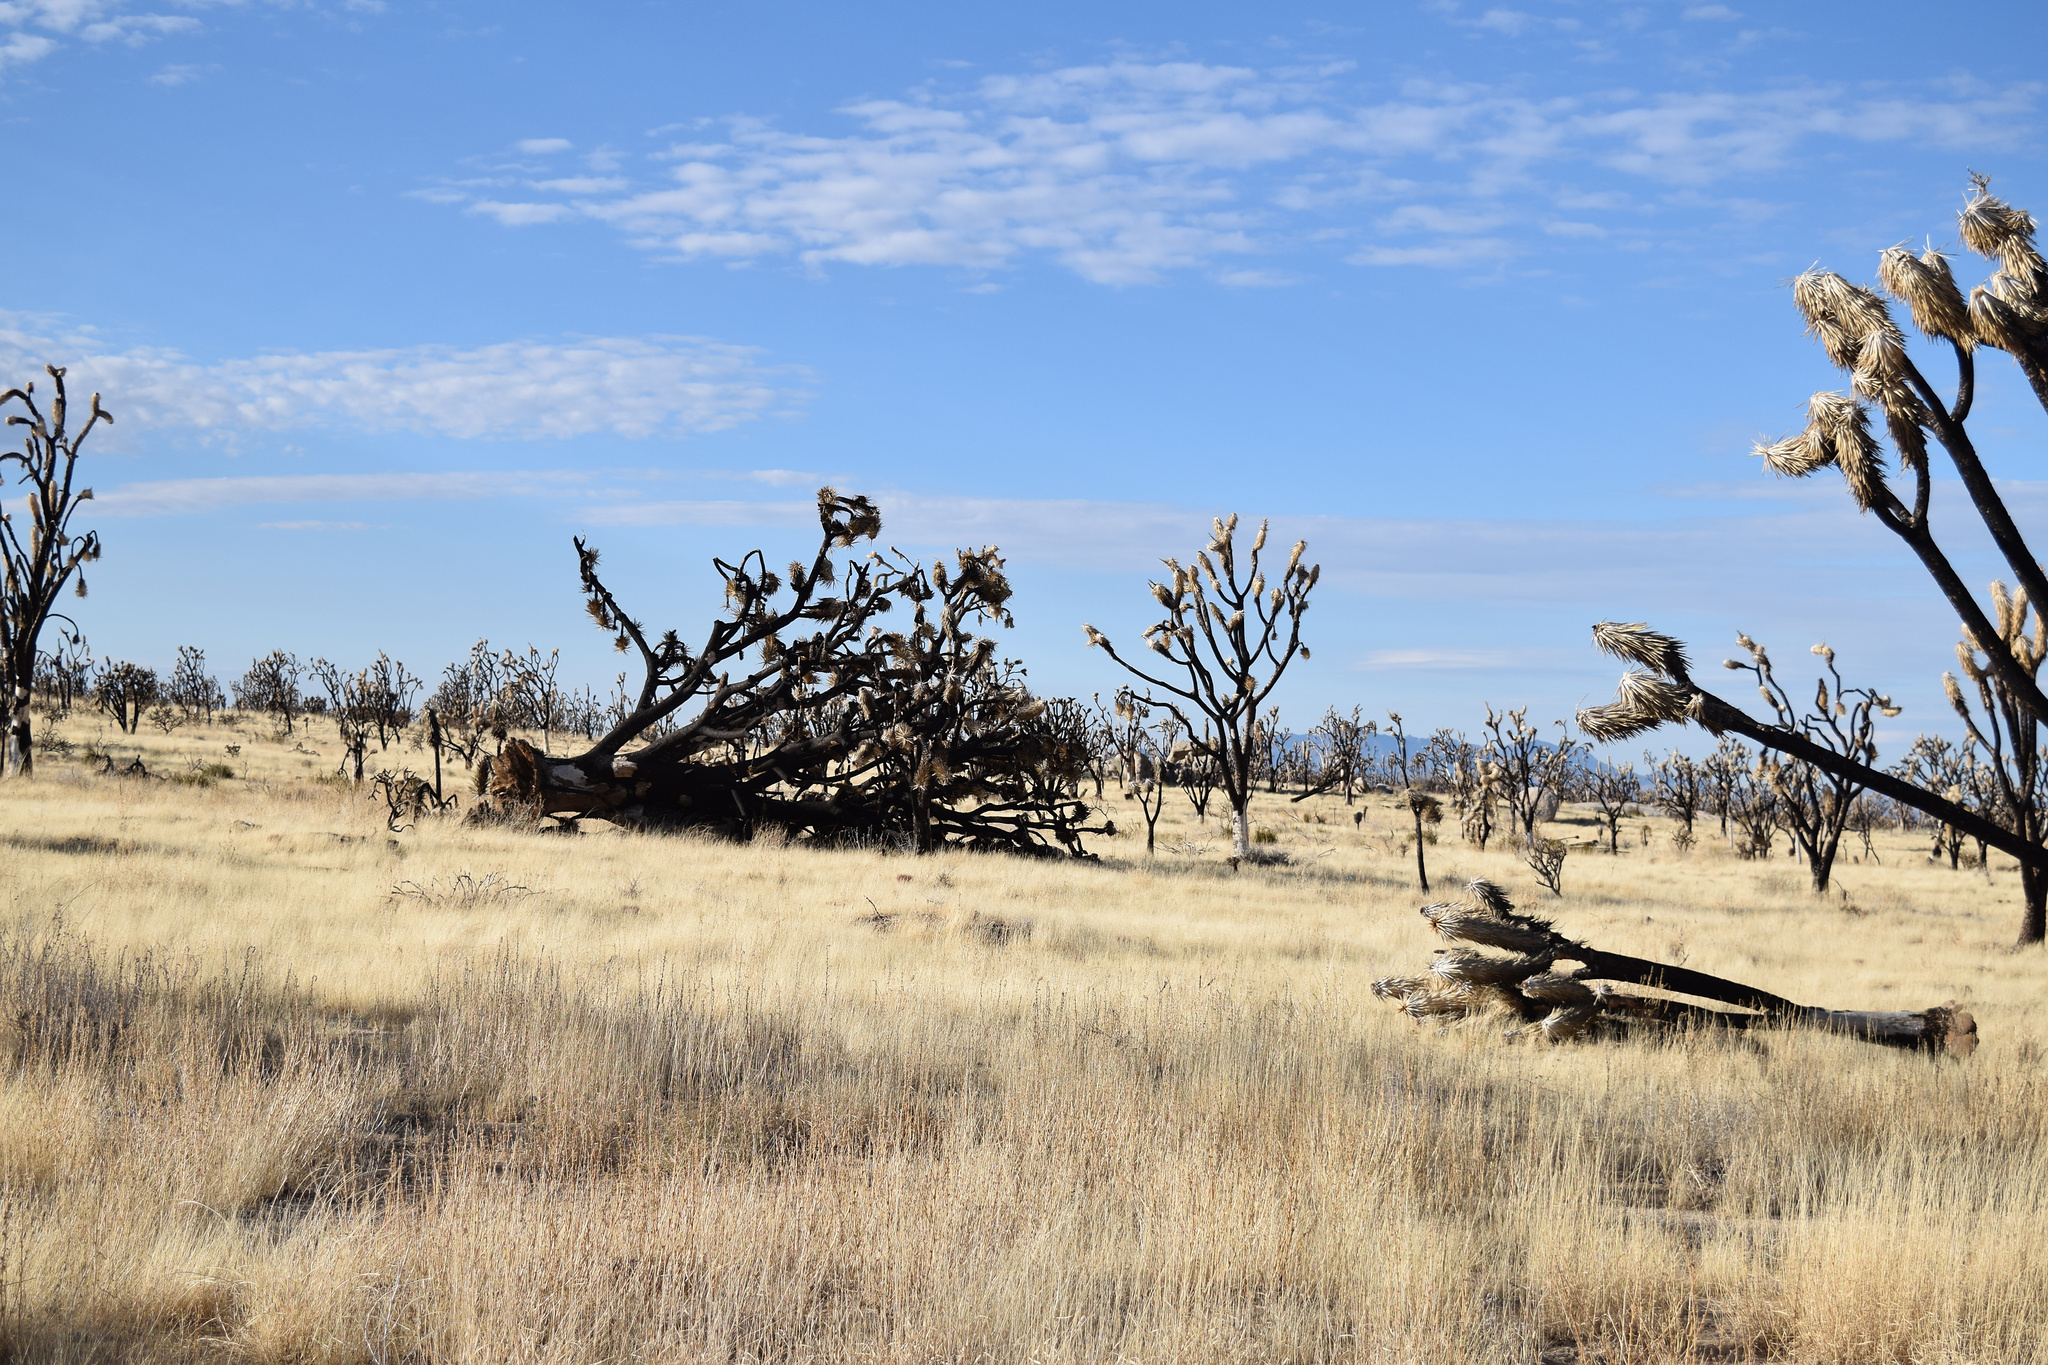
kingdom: Plantae
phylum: Tracheophyta
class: Liliopsida
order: Asparagales
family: Asparagaceae
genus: Yucca
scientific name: Yucca brevifolia
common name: Joshua tree
